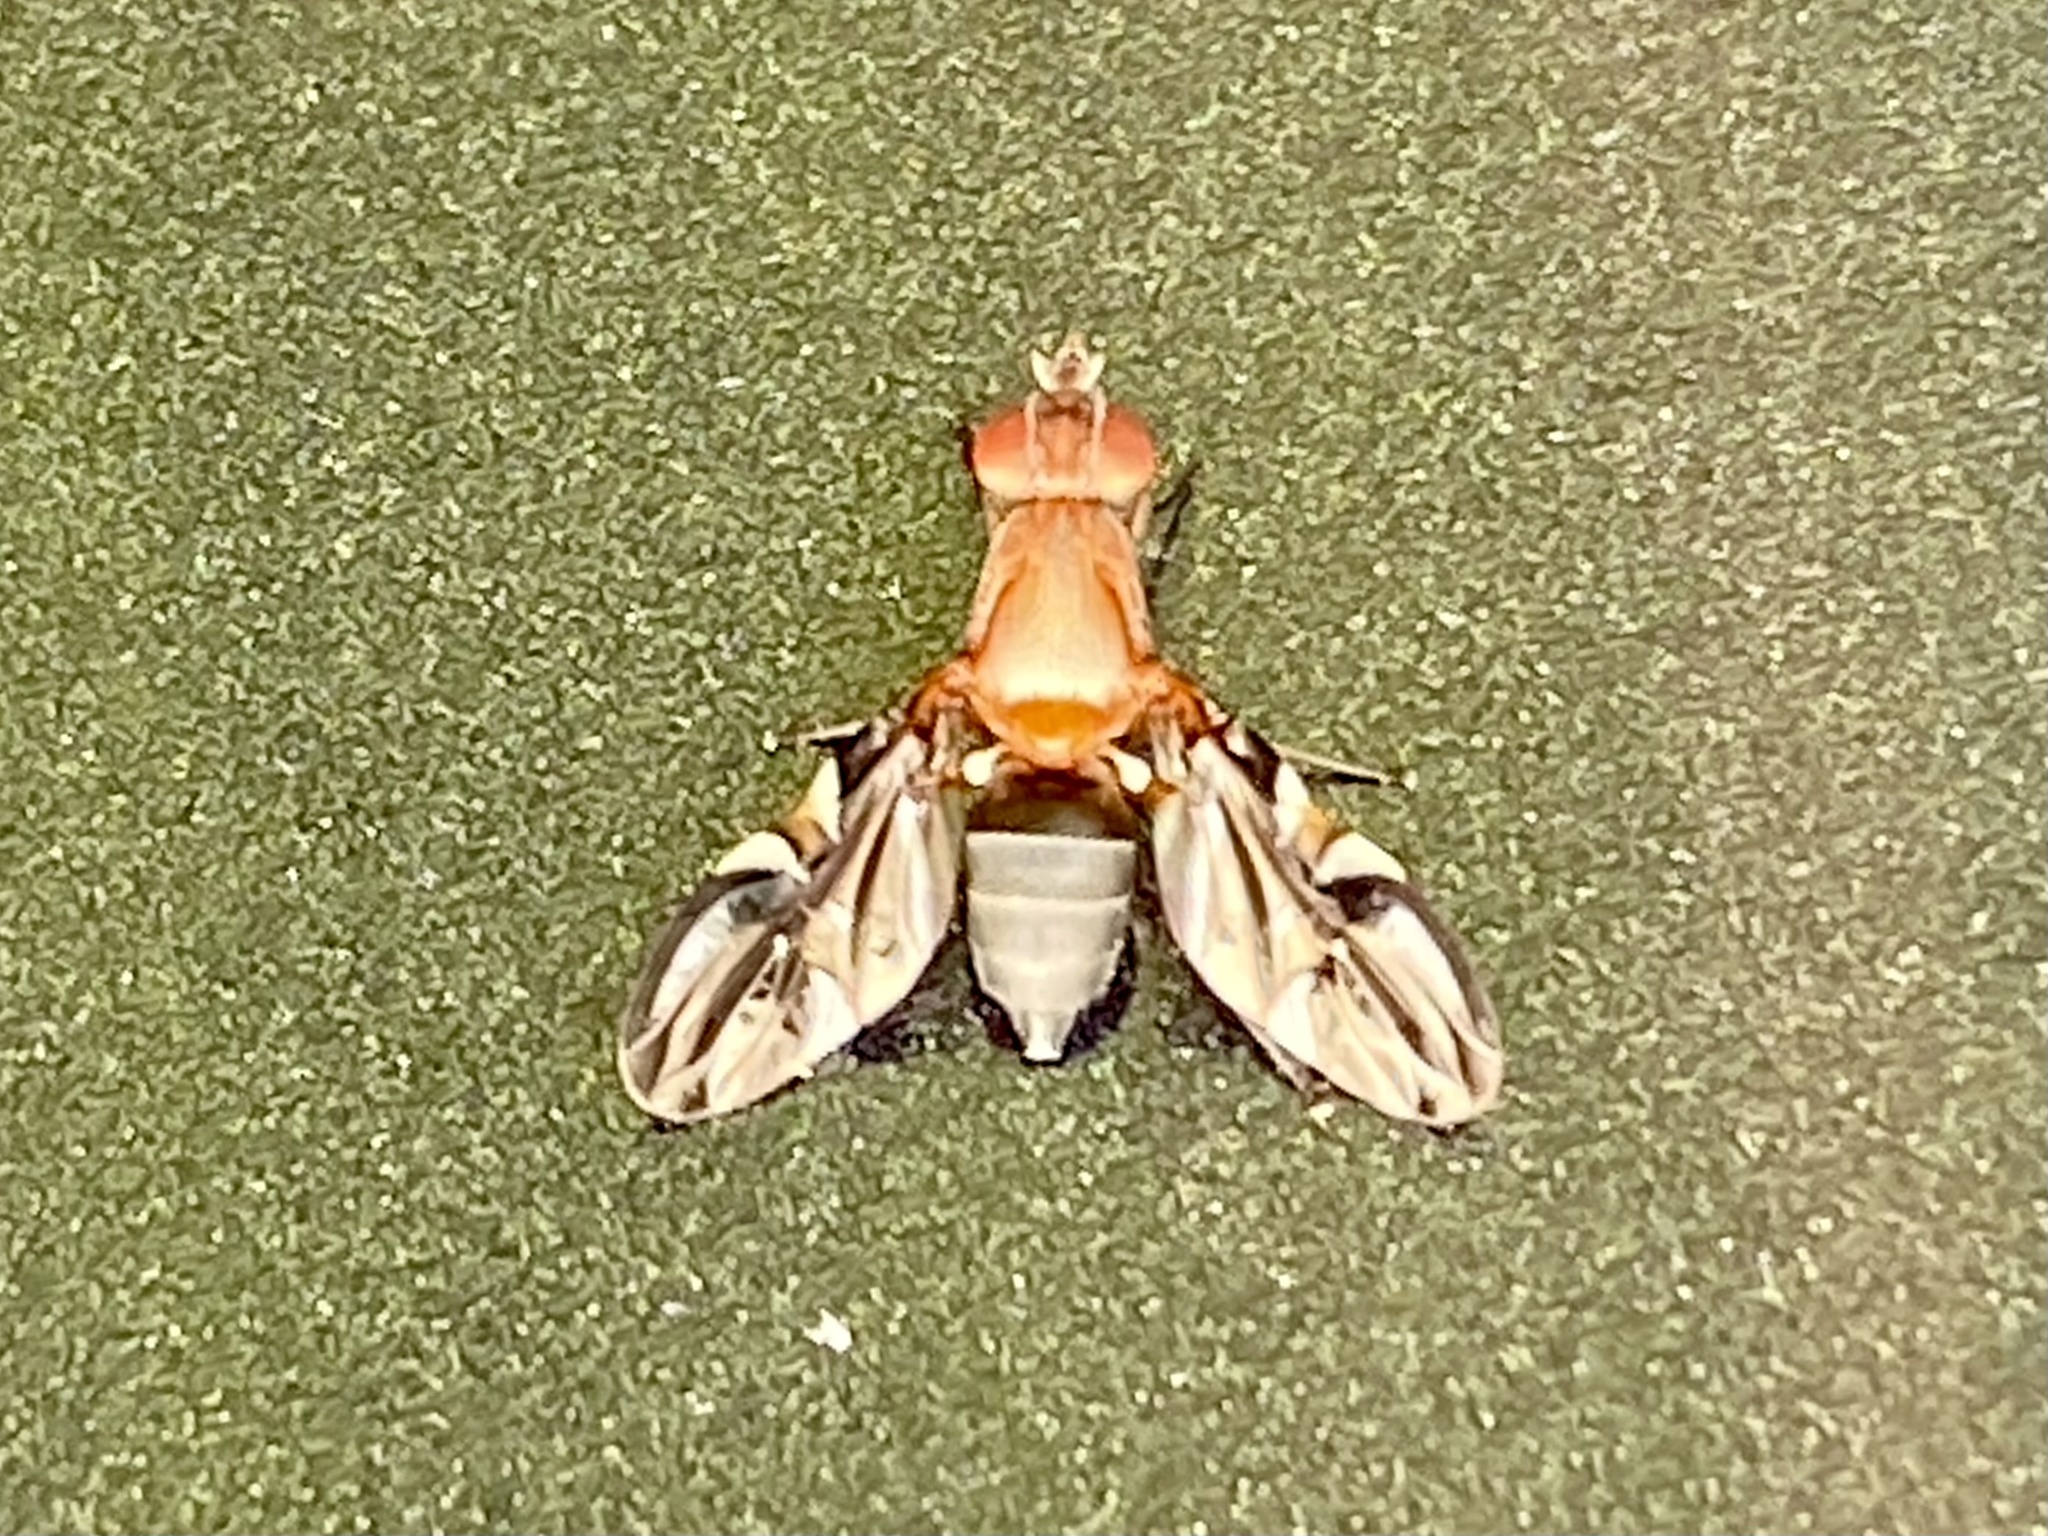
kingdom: Animalia
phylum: Arthropoda
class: Insecta
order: Diptera
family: Ulidiidae
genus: Delphinia
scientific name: Delphinia picta
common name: Common picture-winged fly
